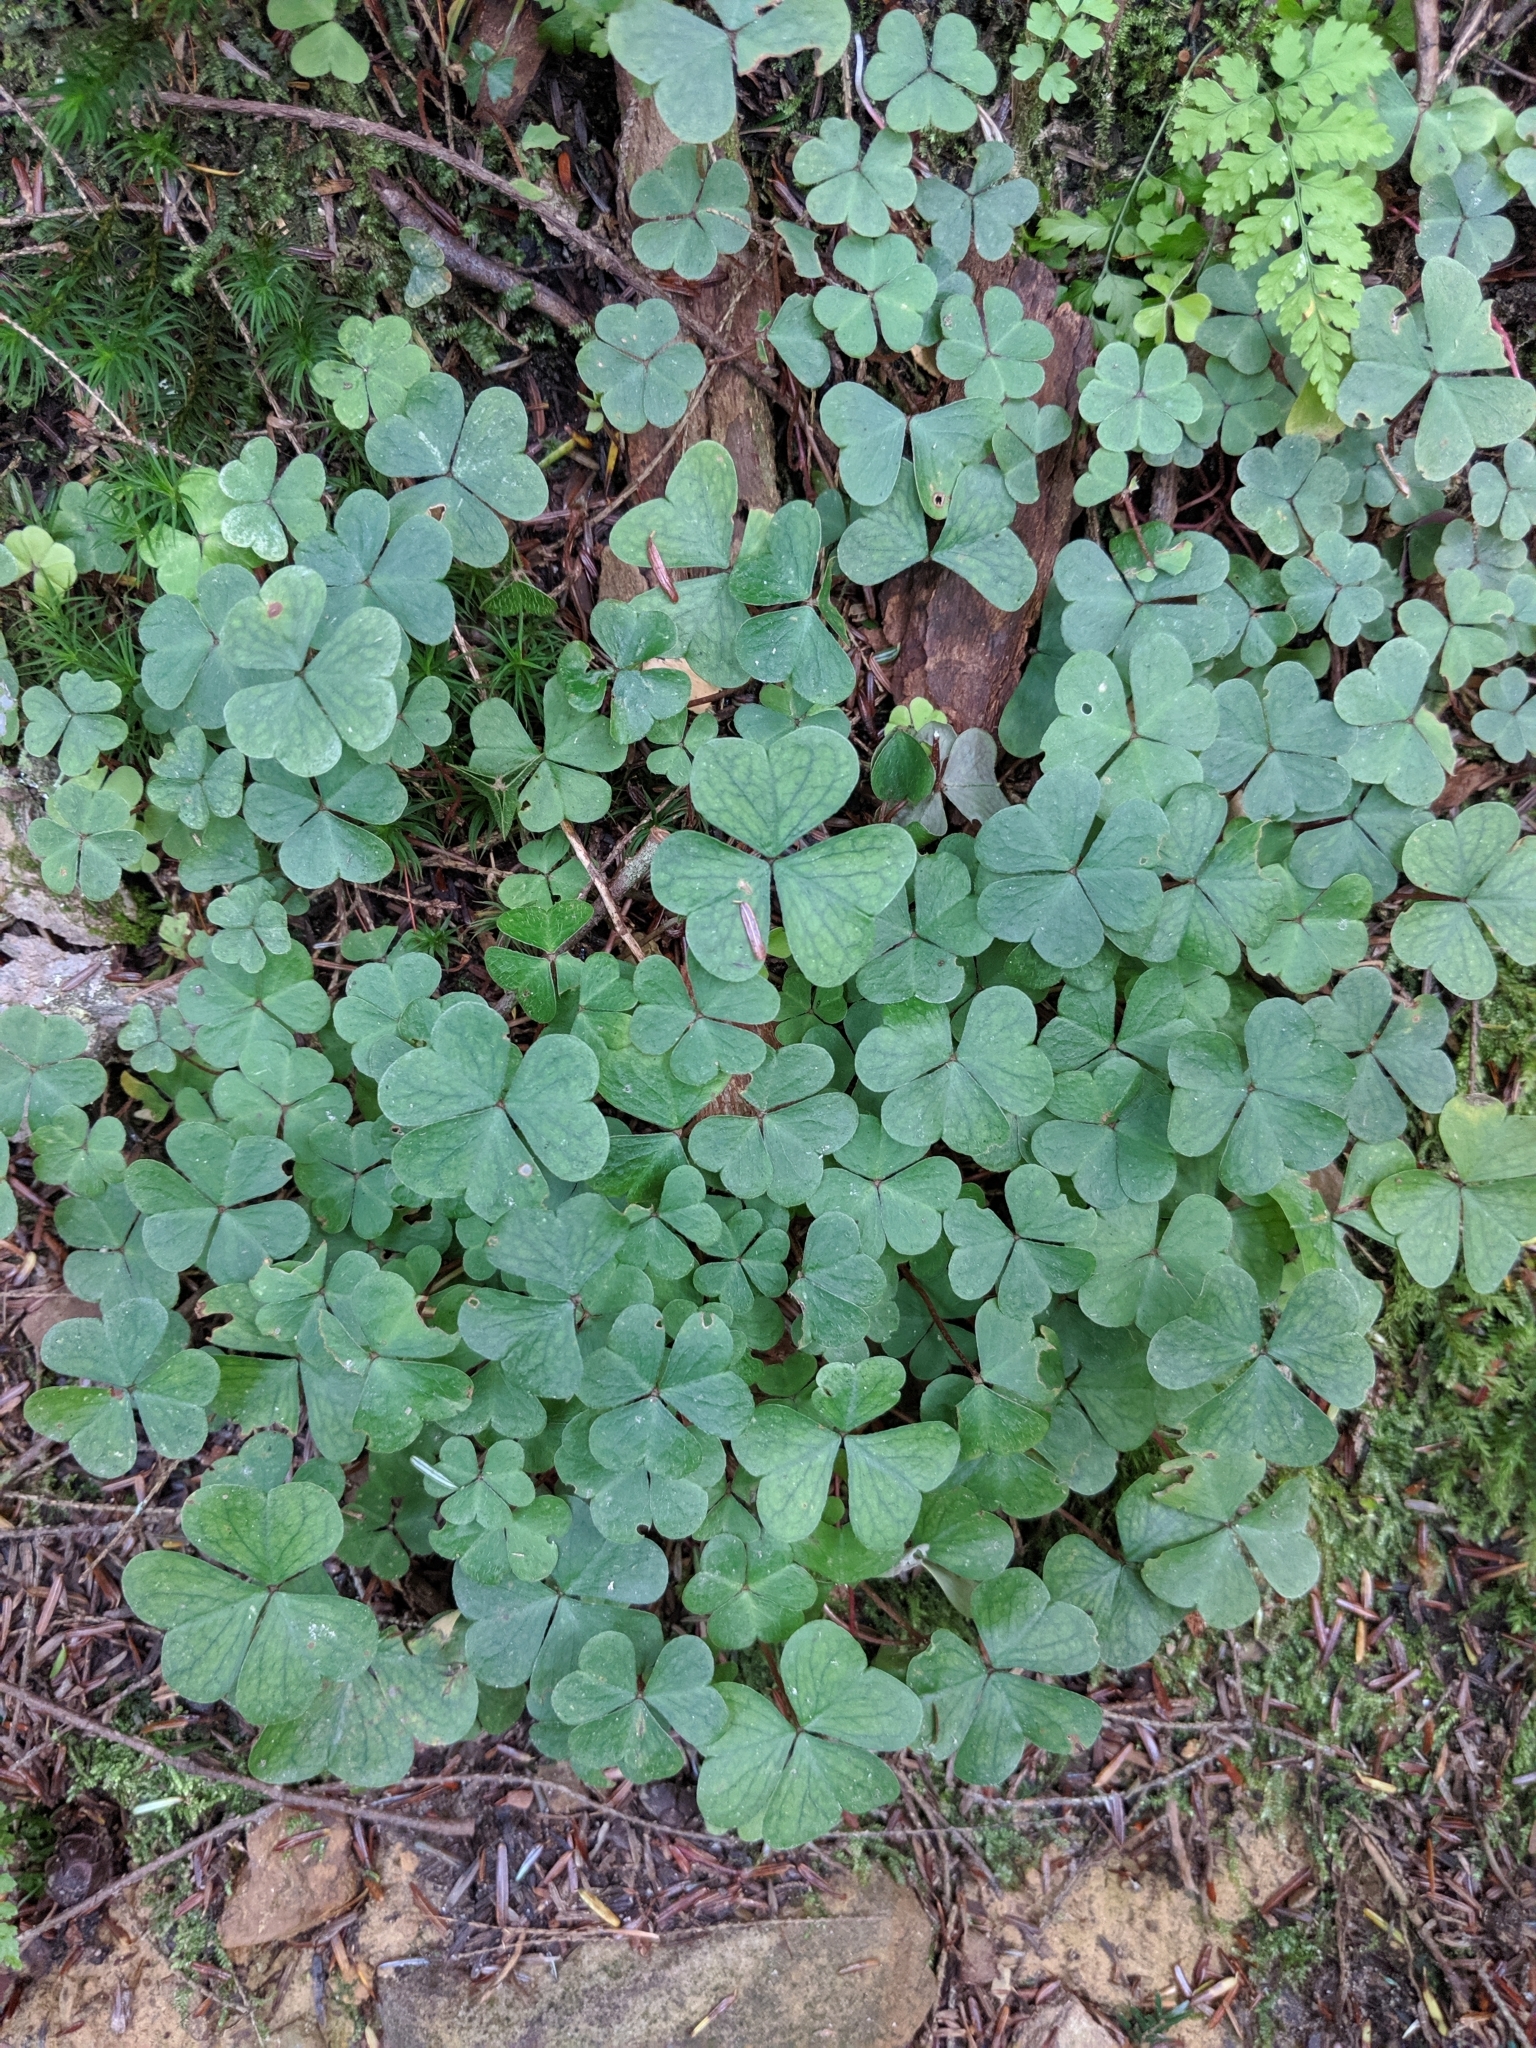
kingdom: Plantae
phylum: Tracheophyta
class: Magnoliopsida
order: Oxalidales
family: Oxalidaceae
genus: Oxalis
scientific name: Oxalis montana
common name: American wood-sorrel
